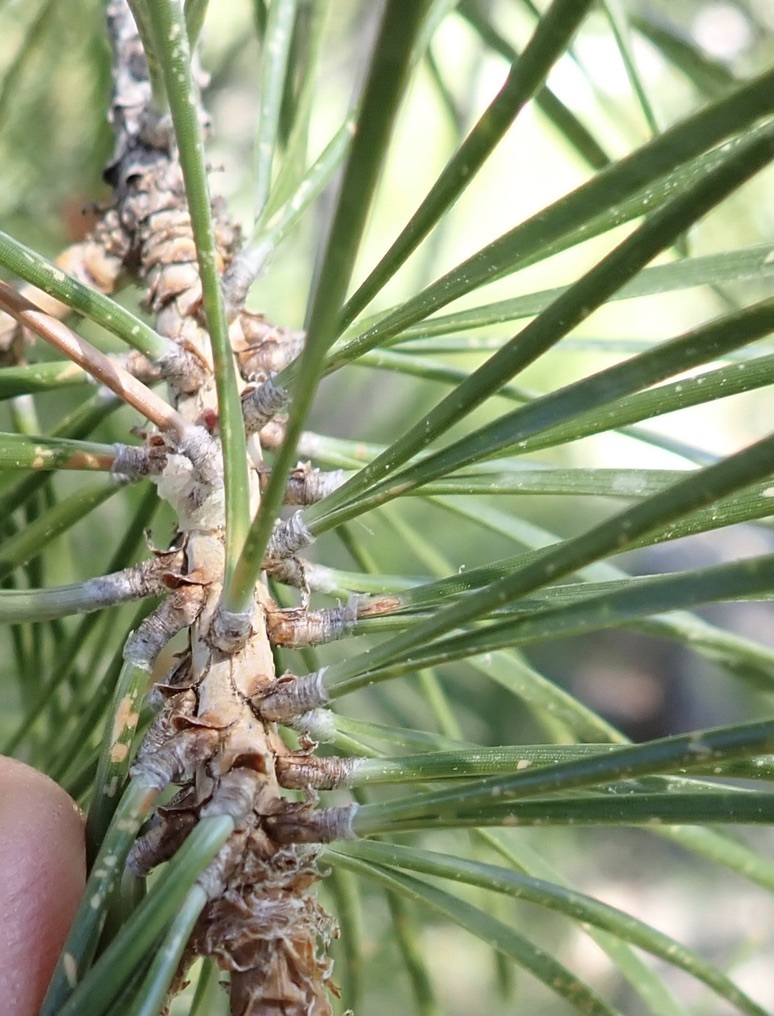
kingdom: Plantae
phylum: Tracheophyta
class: Pinopsida
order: Pinales
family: Pinaceae
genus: Pinus
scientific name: Pinus contorta
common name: Lodgepole pine
